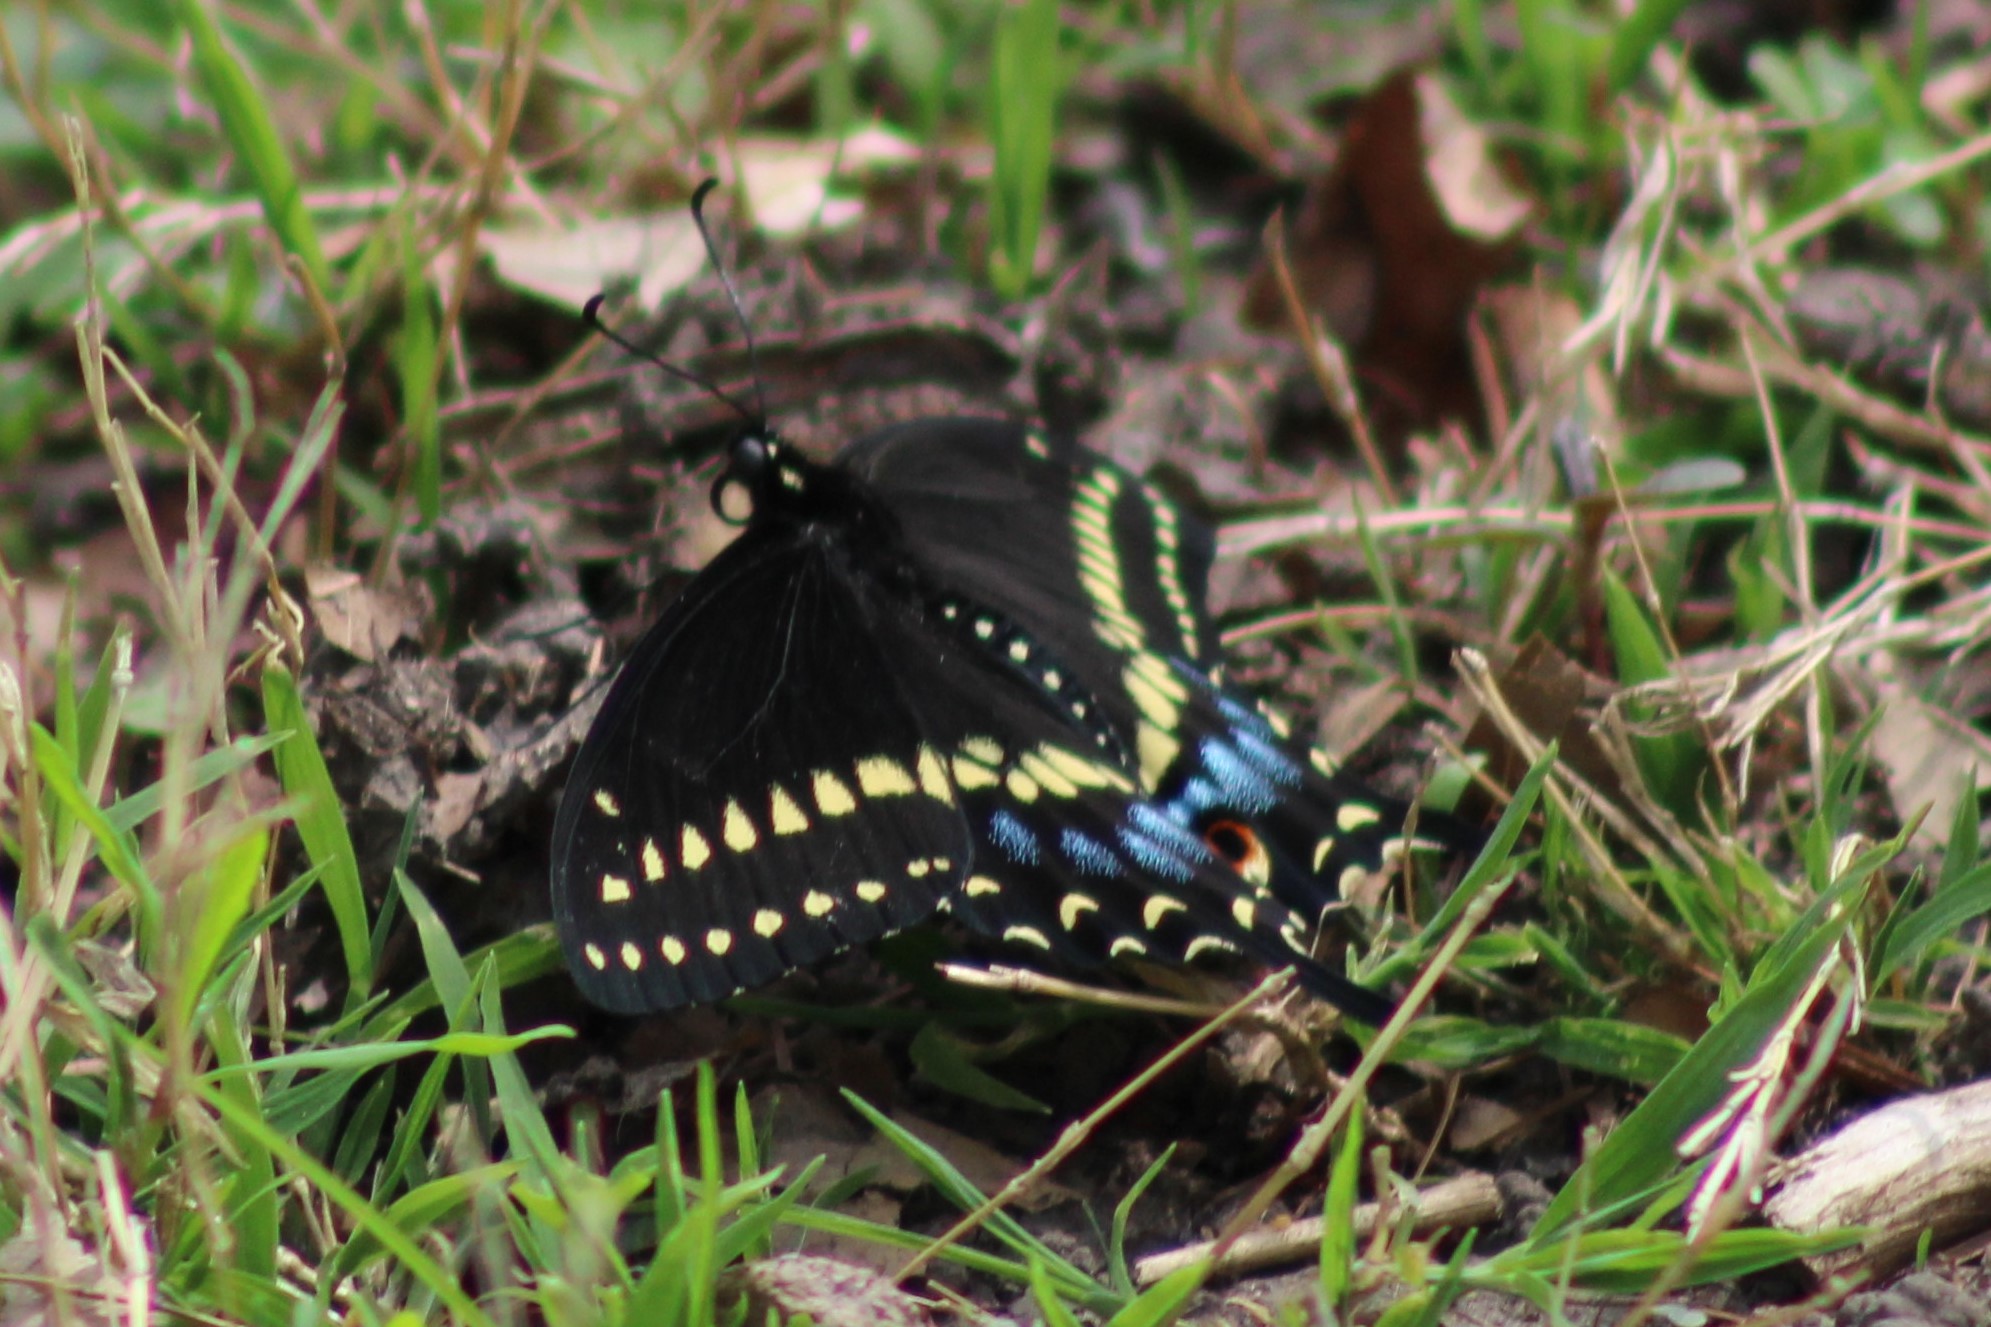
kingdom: Animalia
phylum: Arthropoda
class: Insecta
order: Lepidoptera
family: Papilionidae
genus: Papilio
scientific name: Papilio polyxenes
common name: Black swallowtail
